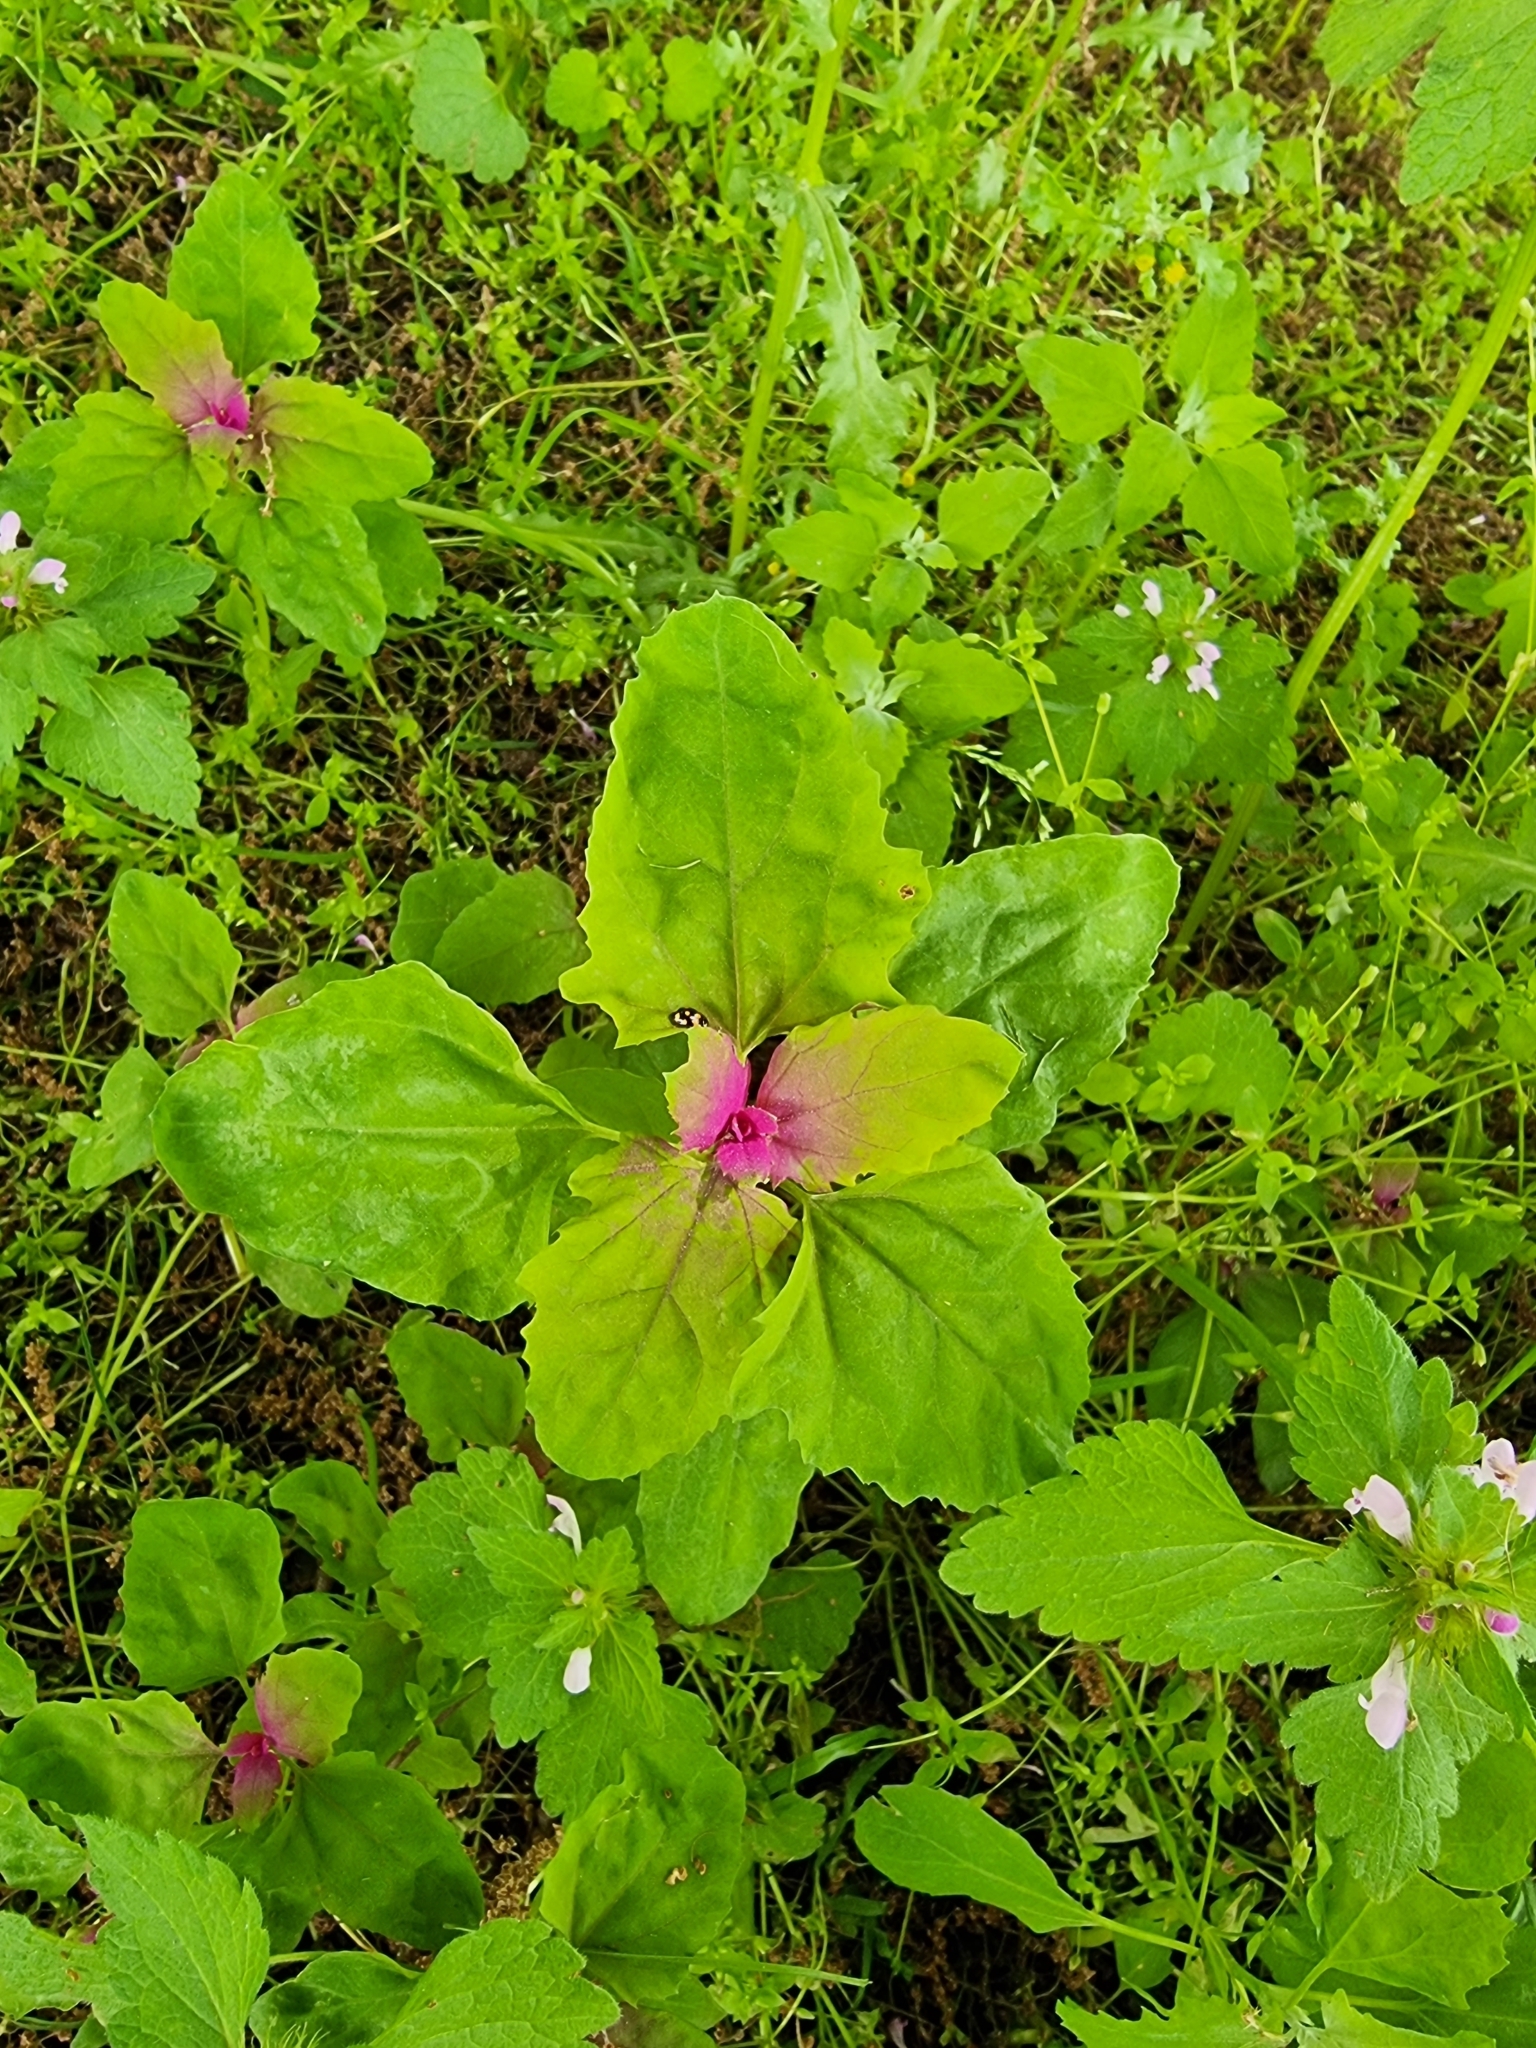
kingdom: Plantae
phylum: Tracheophyta
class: Magnoliopsida
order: Caryophyllales
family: Amaranthaceae
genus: Chenopodium
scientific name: Chenopodium giganteum
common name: Magentaspreen
